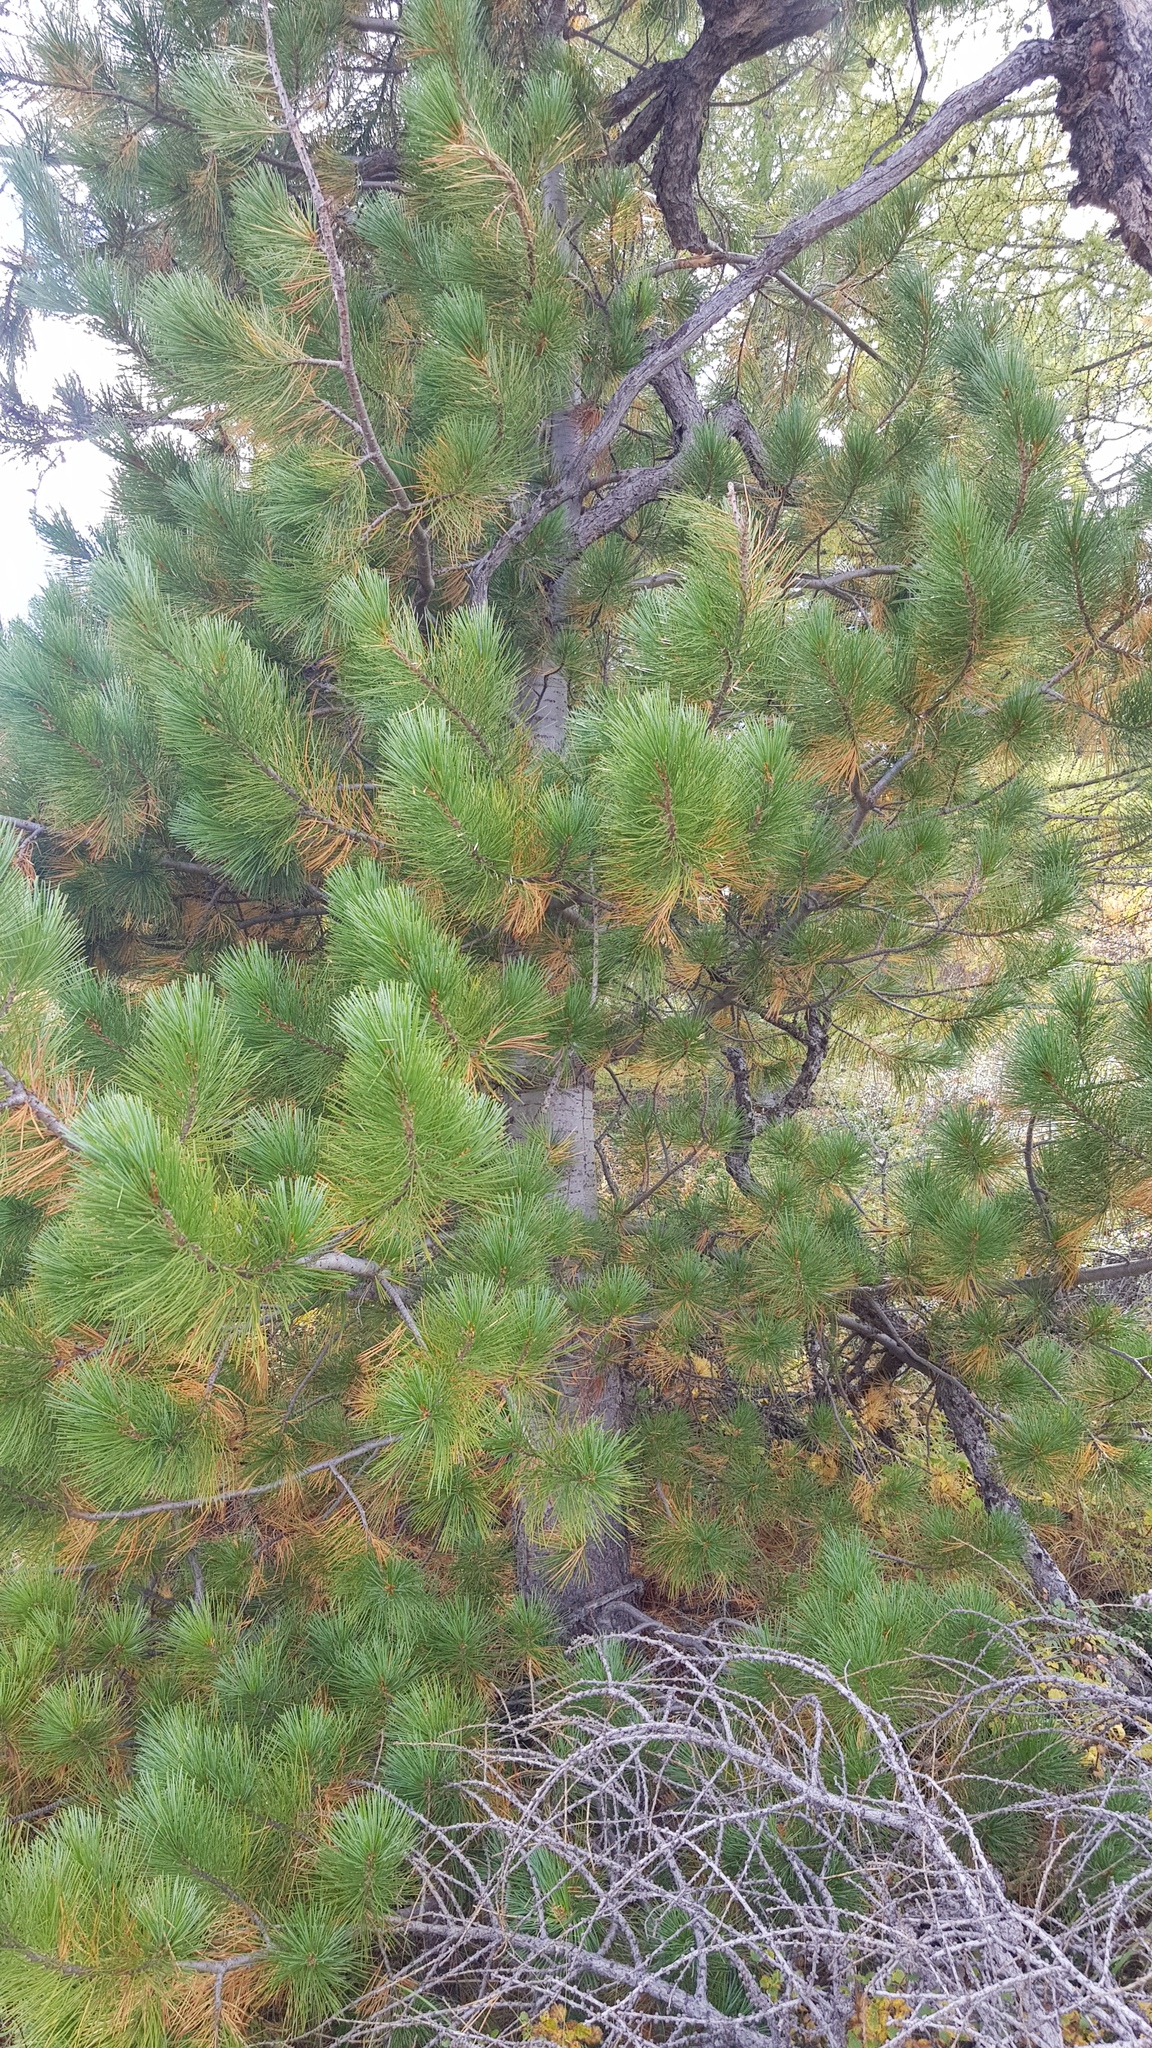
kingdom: Plantae
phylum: Tracheophyta
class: Pinopsida
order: Pinales
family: Pinaceae
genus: Pinus
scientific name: Pinus sibirica
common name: Siberian pine
